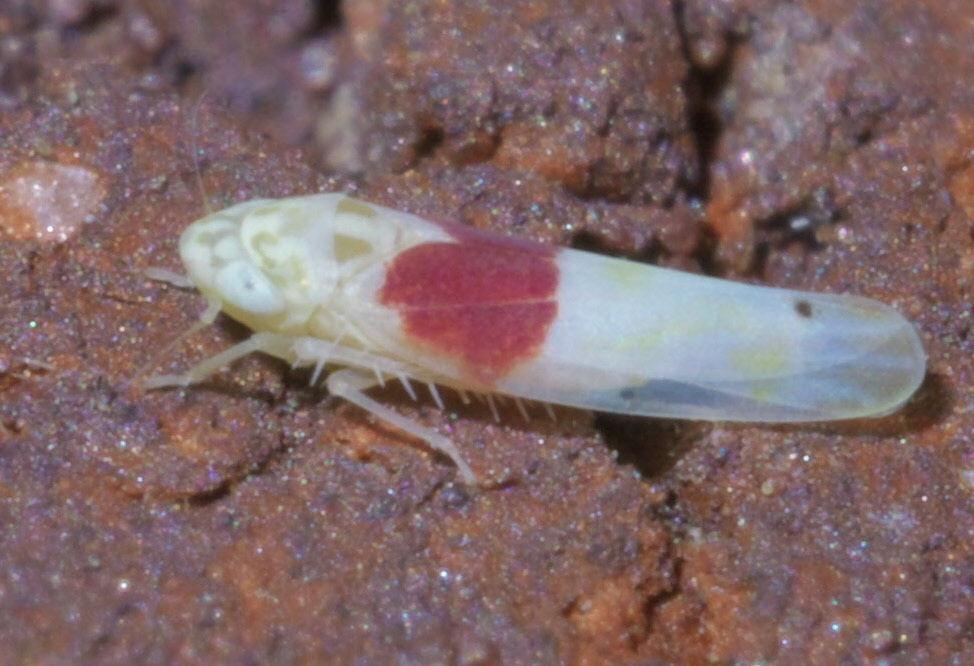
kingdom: Animalia
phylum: Arthropoda
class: Insecta
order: Hemiptera
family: Cicadellidae
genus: Eratoneura
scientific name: Eratoneura osborni
